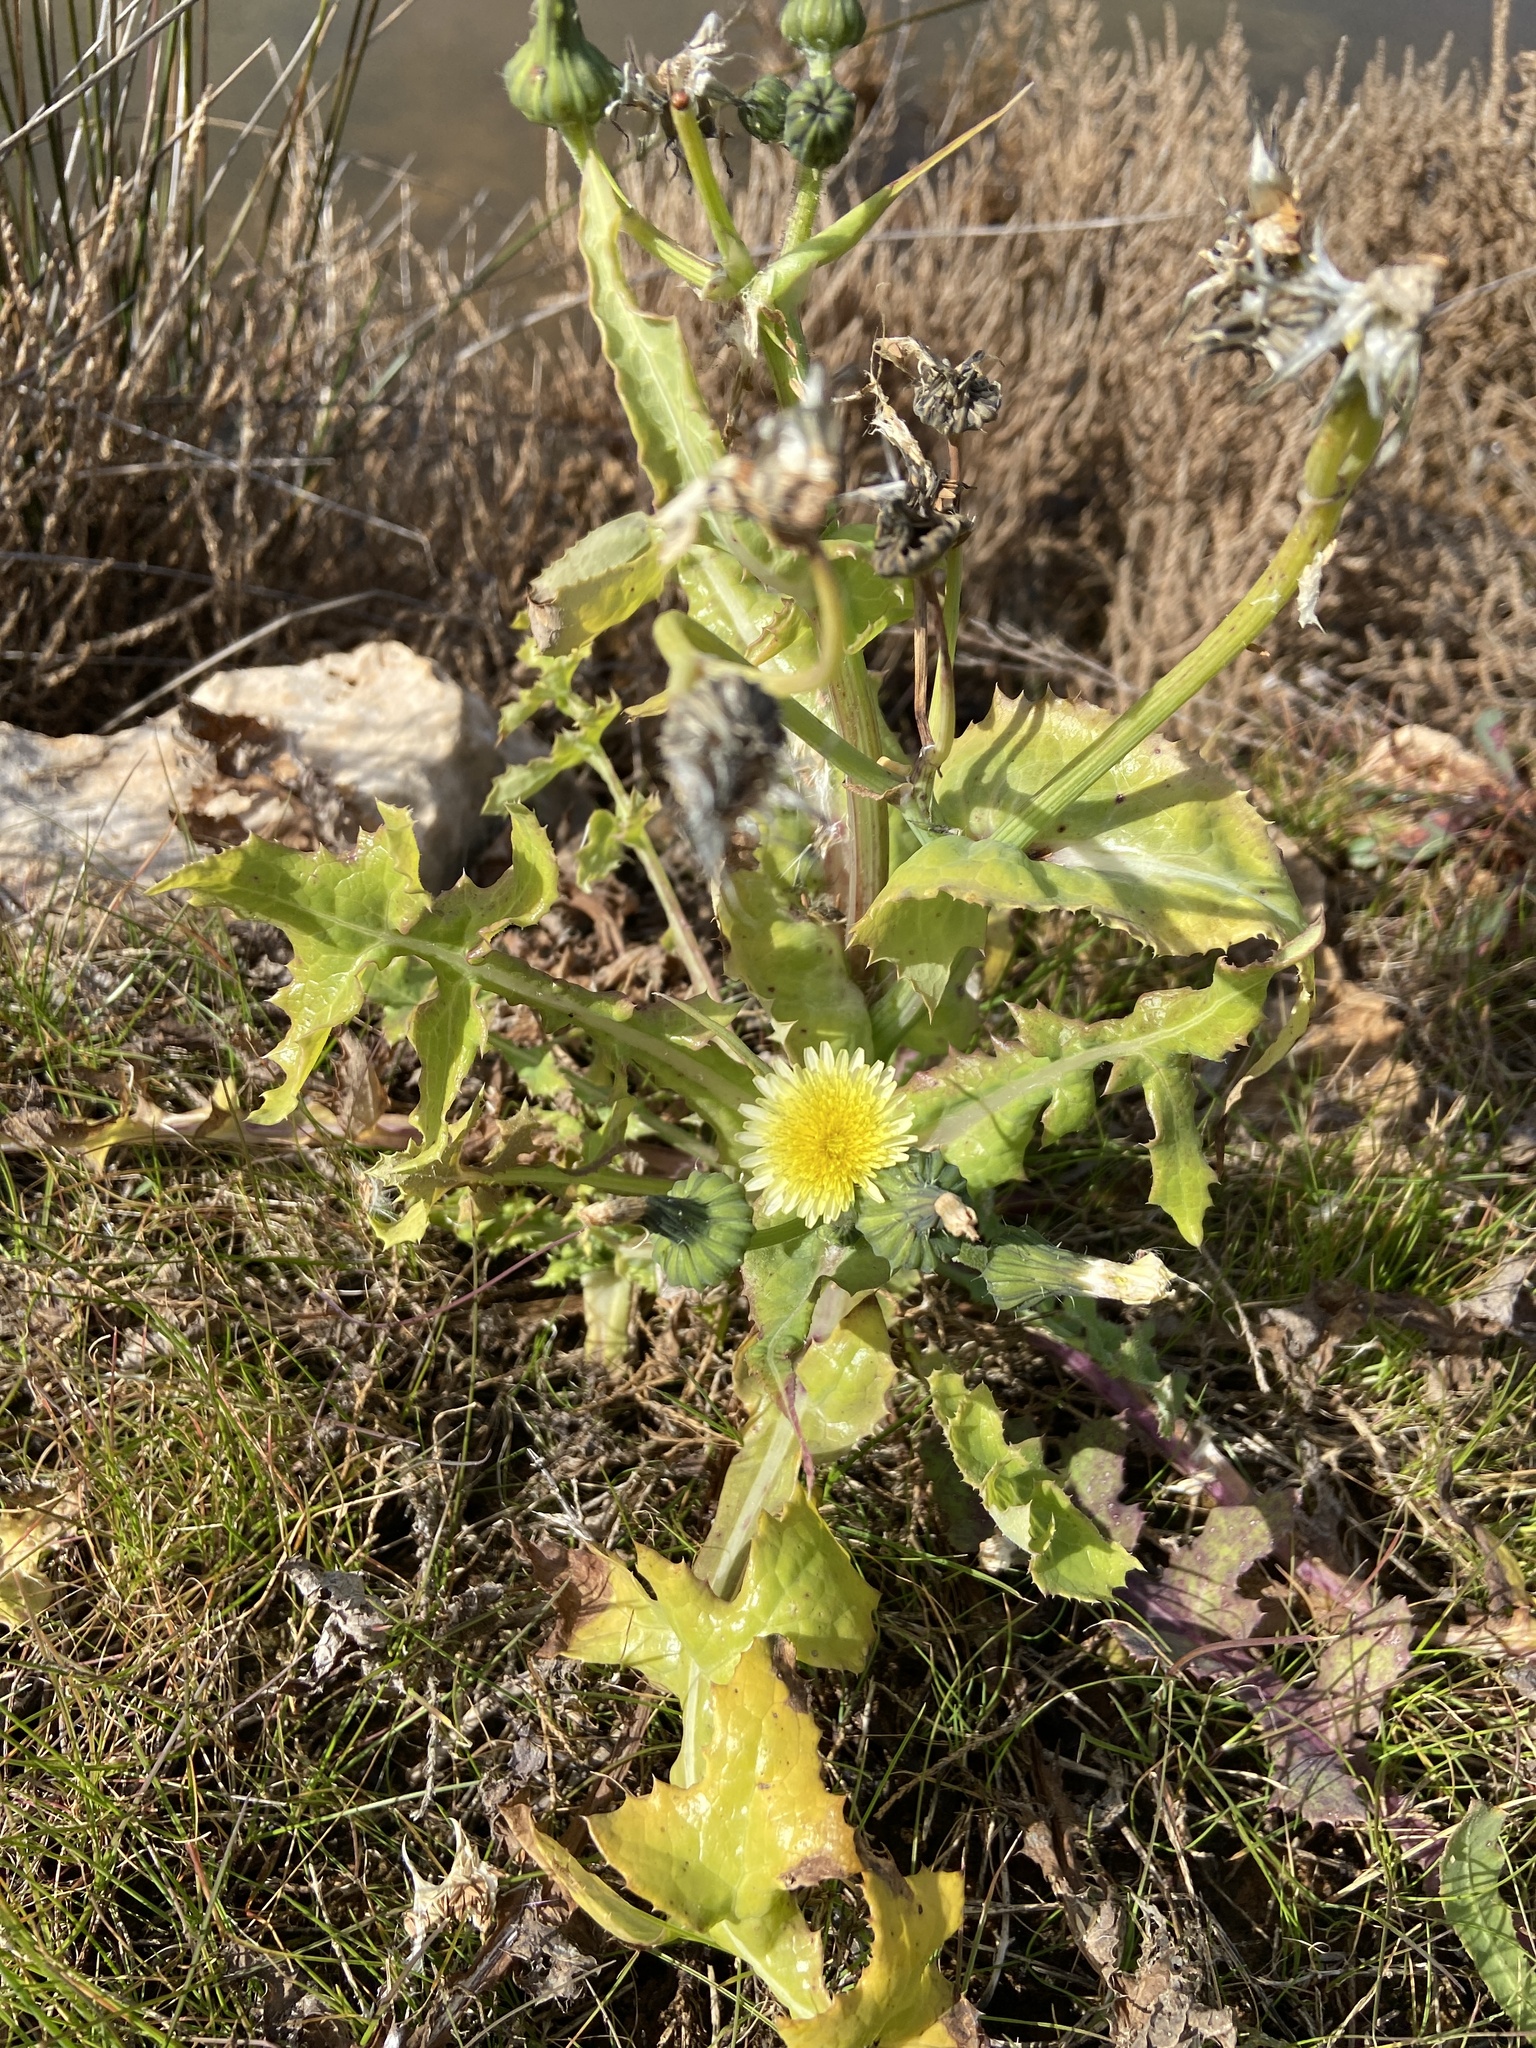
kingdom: Plantae
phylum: Tracheophyta
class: Magnoliopsida
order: Asterales
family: Asteraceae
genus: Sonchus
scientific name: Sonchus oleraceus
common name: Common sowthistle
